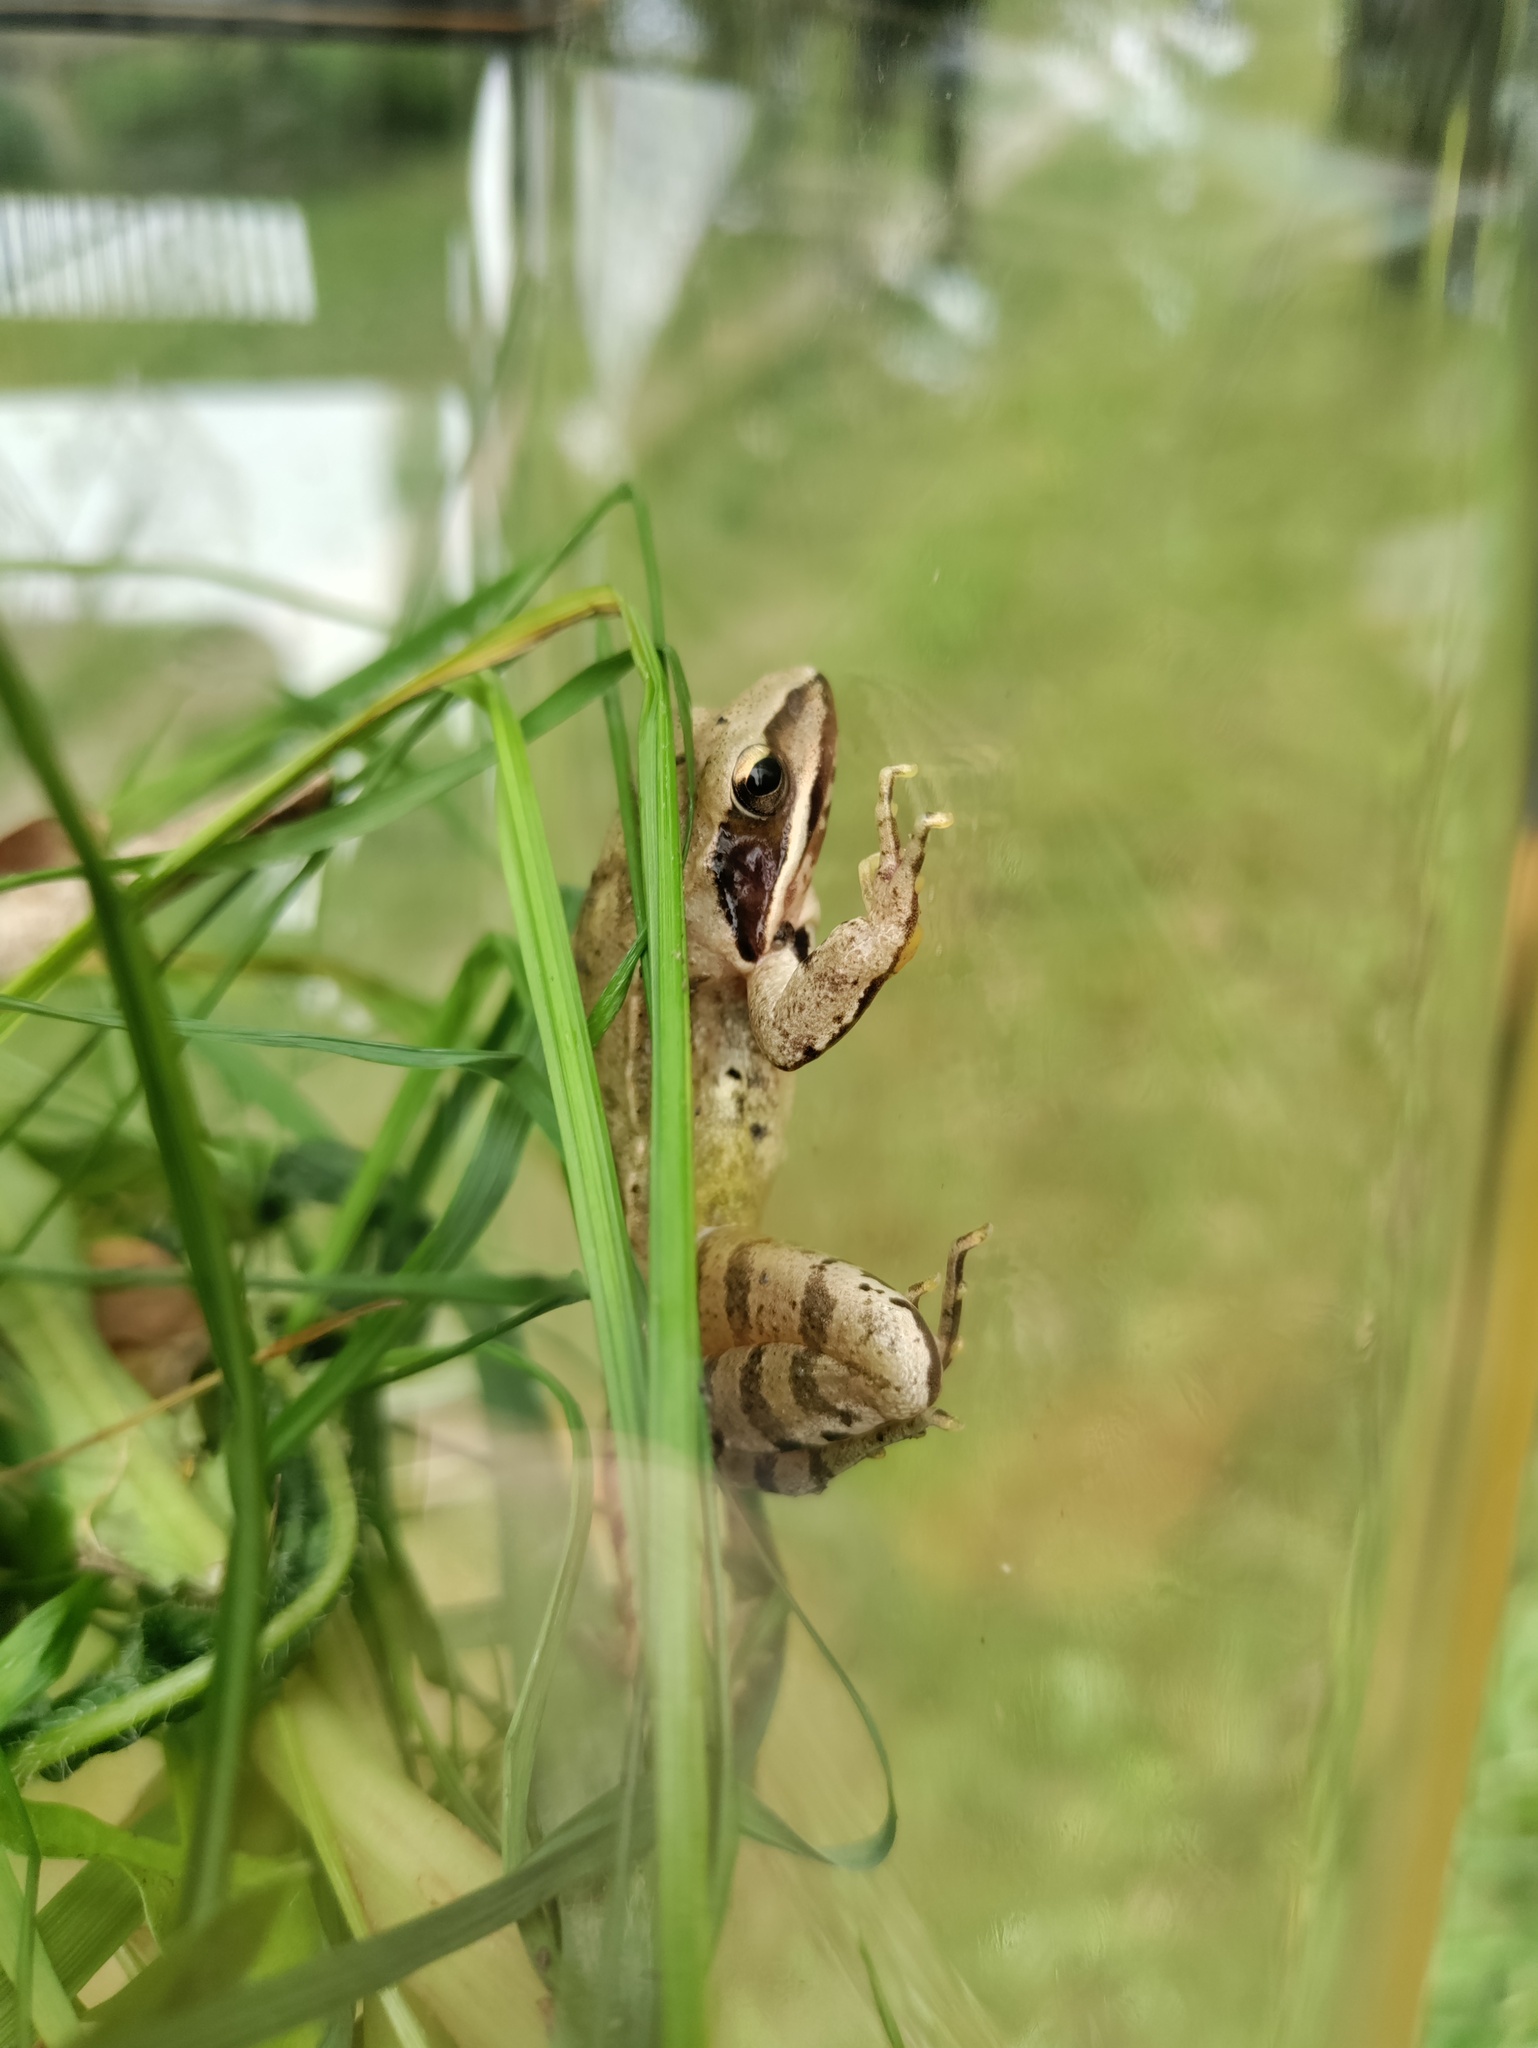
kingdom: Animalia
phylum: Chordata
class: Amphibia
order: Anura
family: Ranidae
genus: Rana
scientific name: Rana dalmatina
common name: Agile frog
